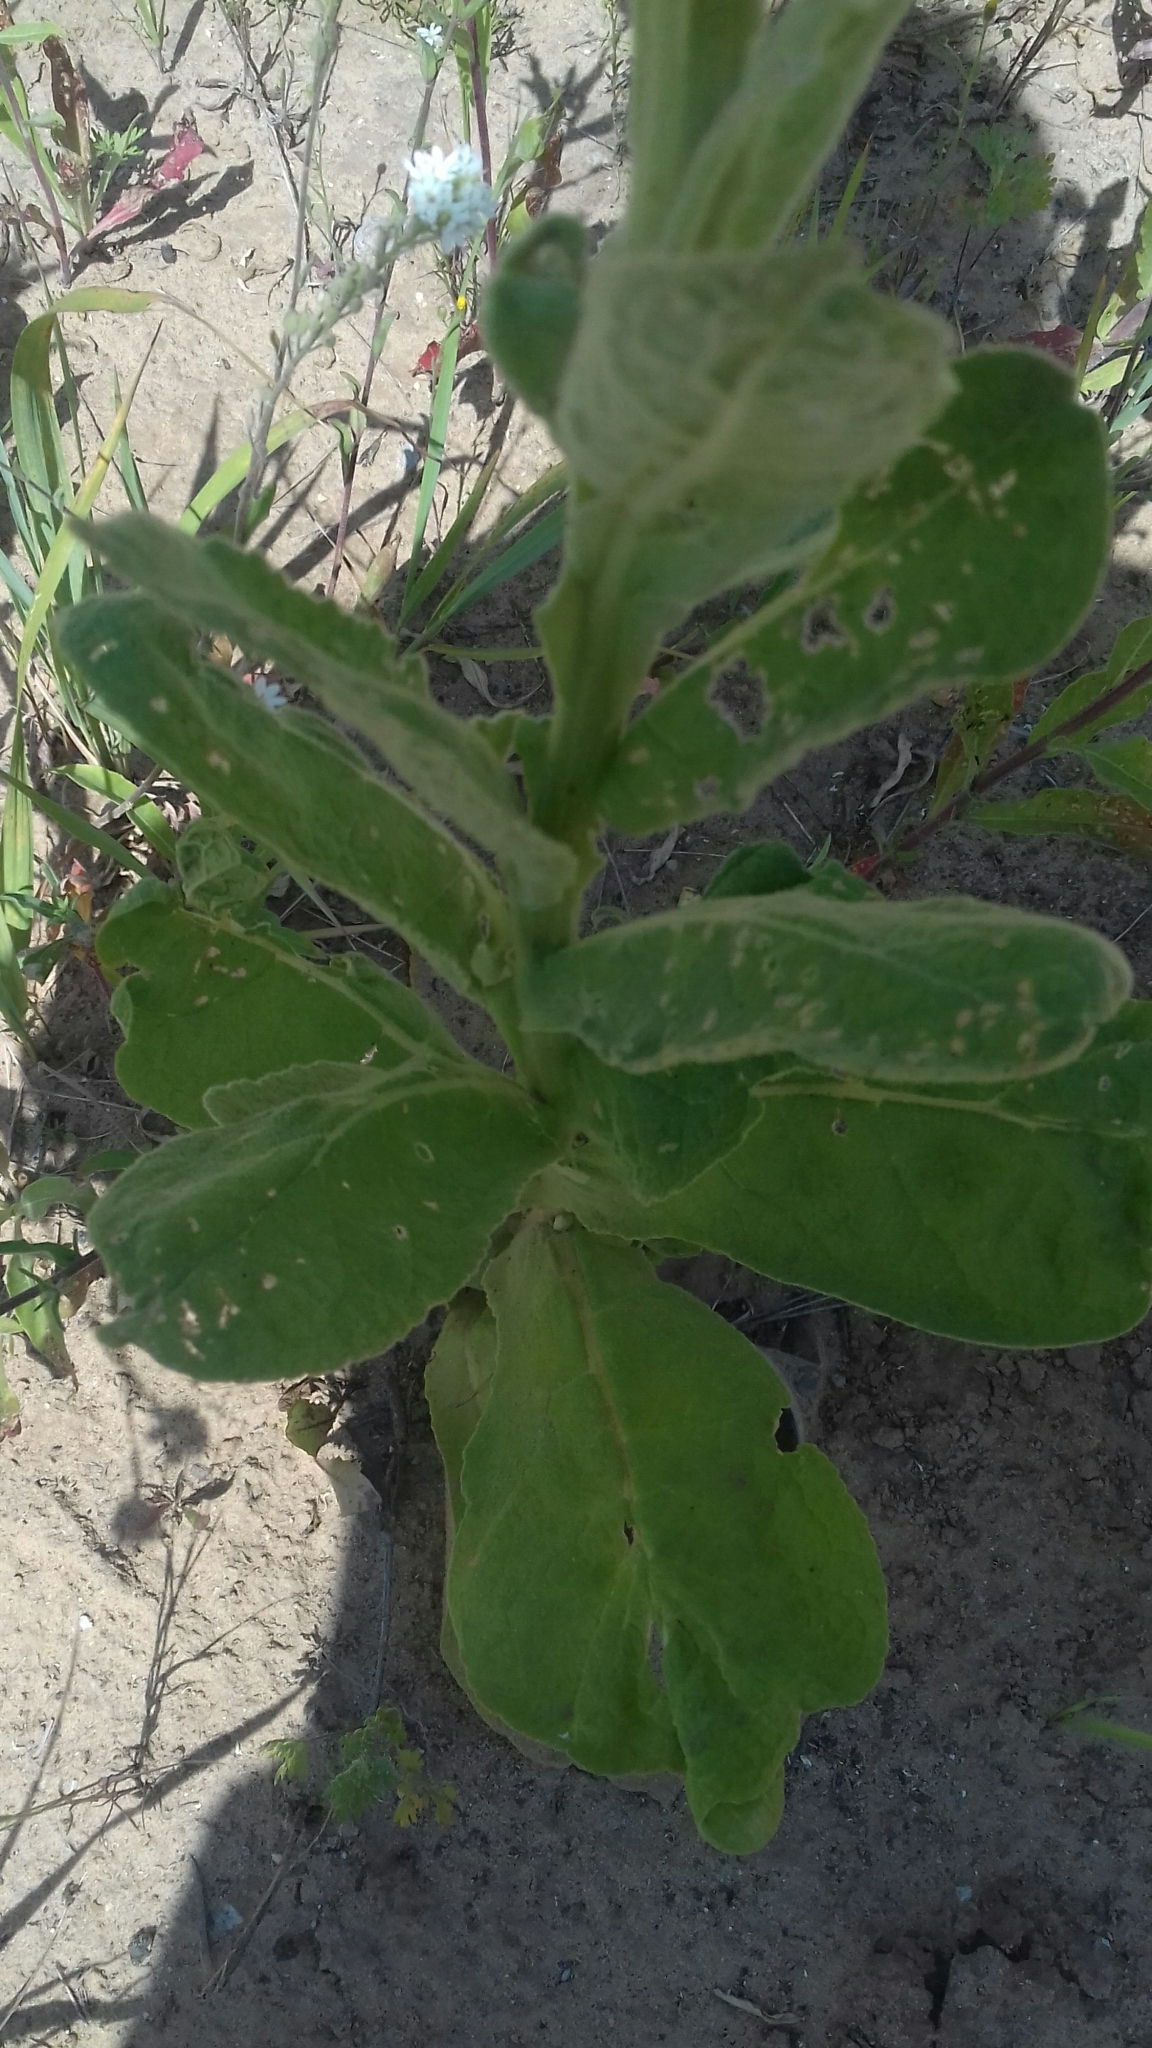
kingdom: Plantae
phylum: Tracheophyta
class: Magnoliopsida
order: Lamiales
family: Scrophulariaceae
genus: Verbascum
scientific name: Verbascum thapsus
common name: Common mullein
